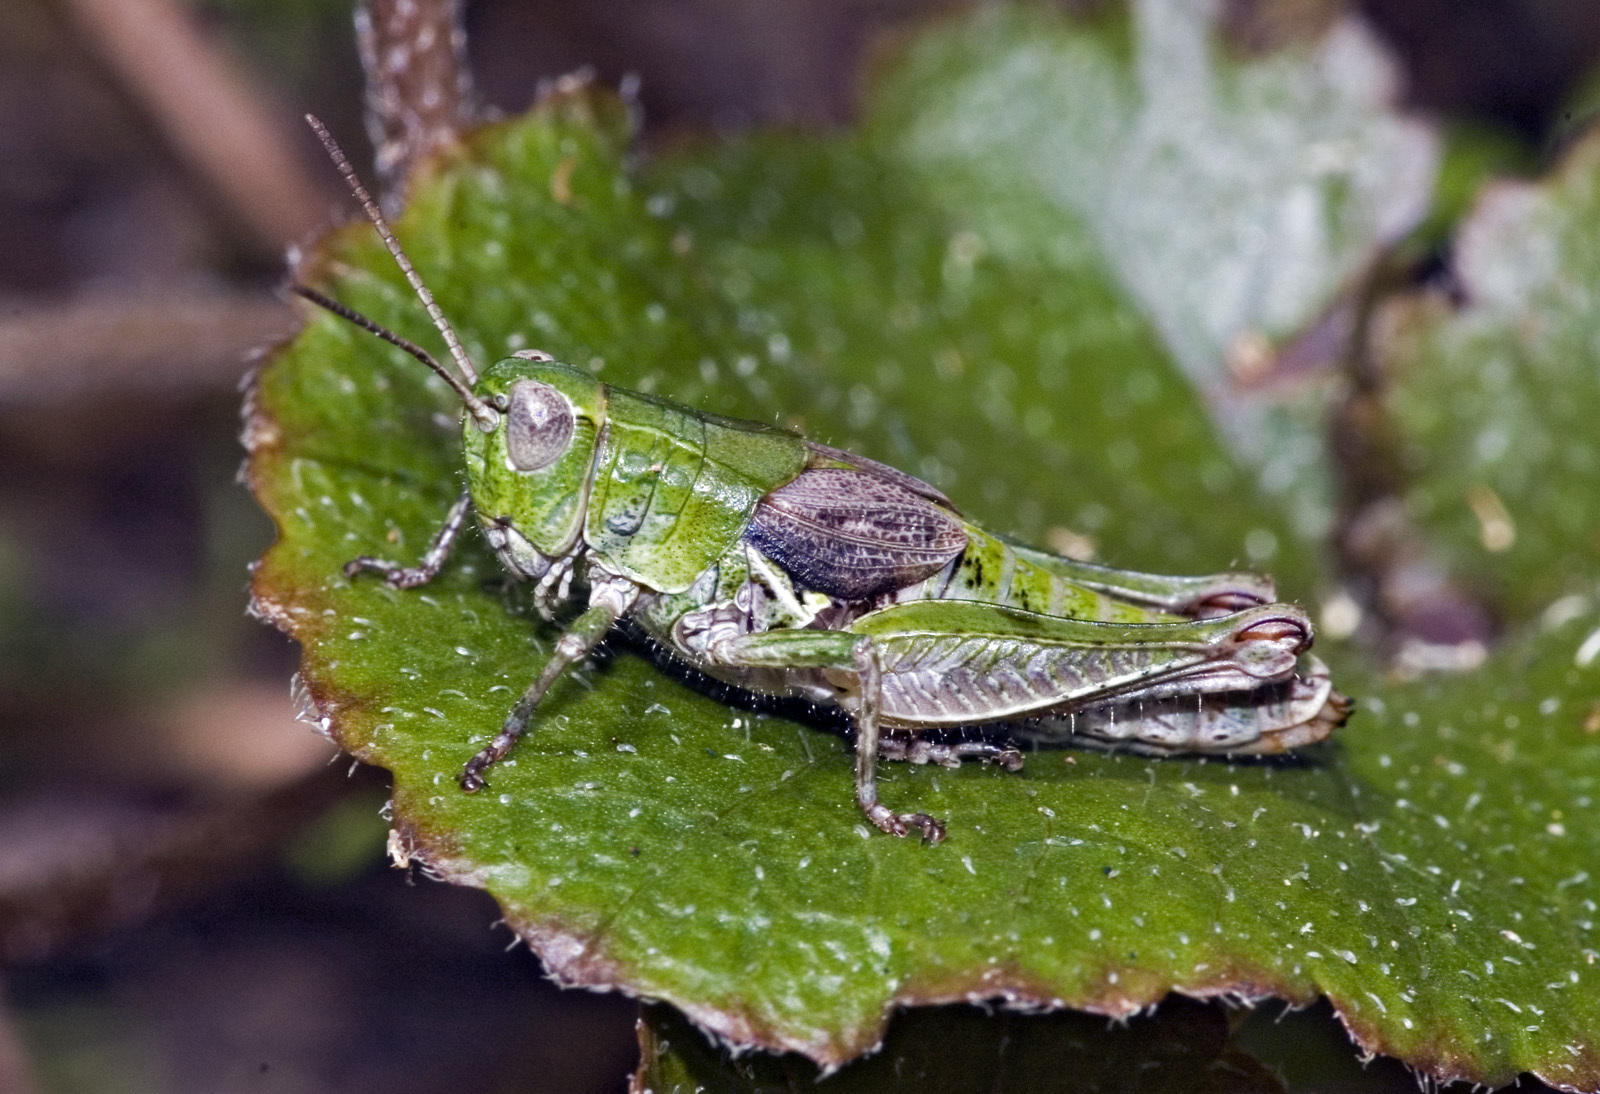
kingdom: Animalia
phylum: Arthropoda
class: Insecta
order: Orthoptera
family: Acrididae
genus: Phaulacridium
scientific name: Phaulacridium marginale
